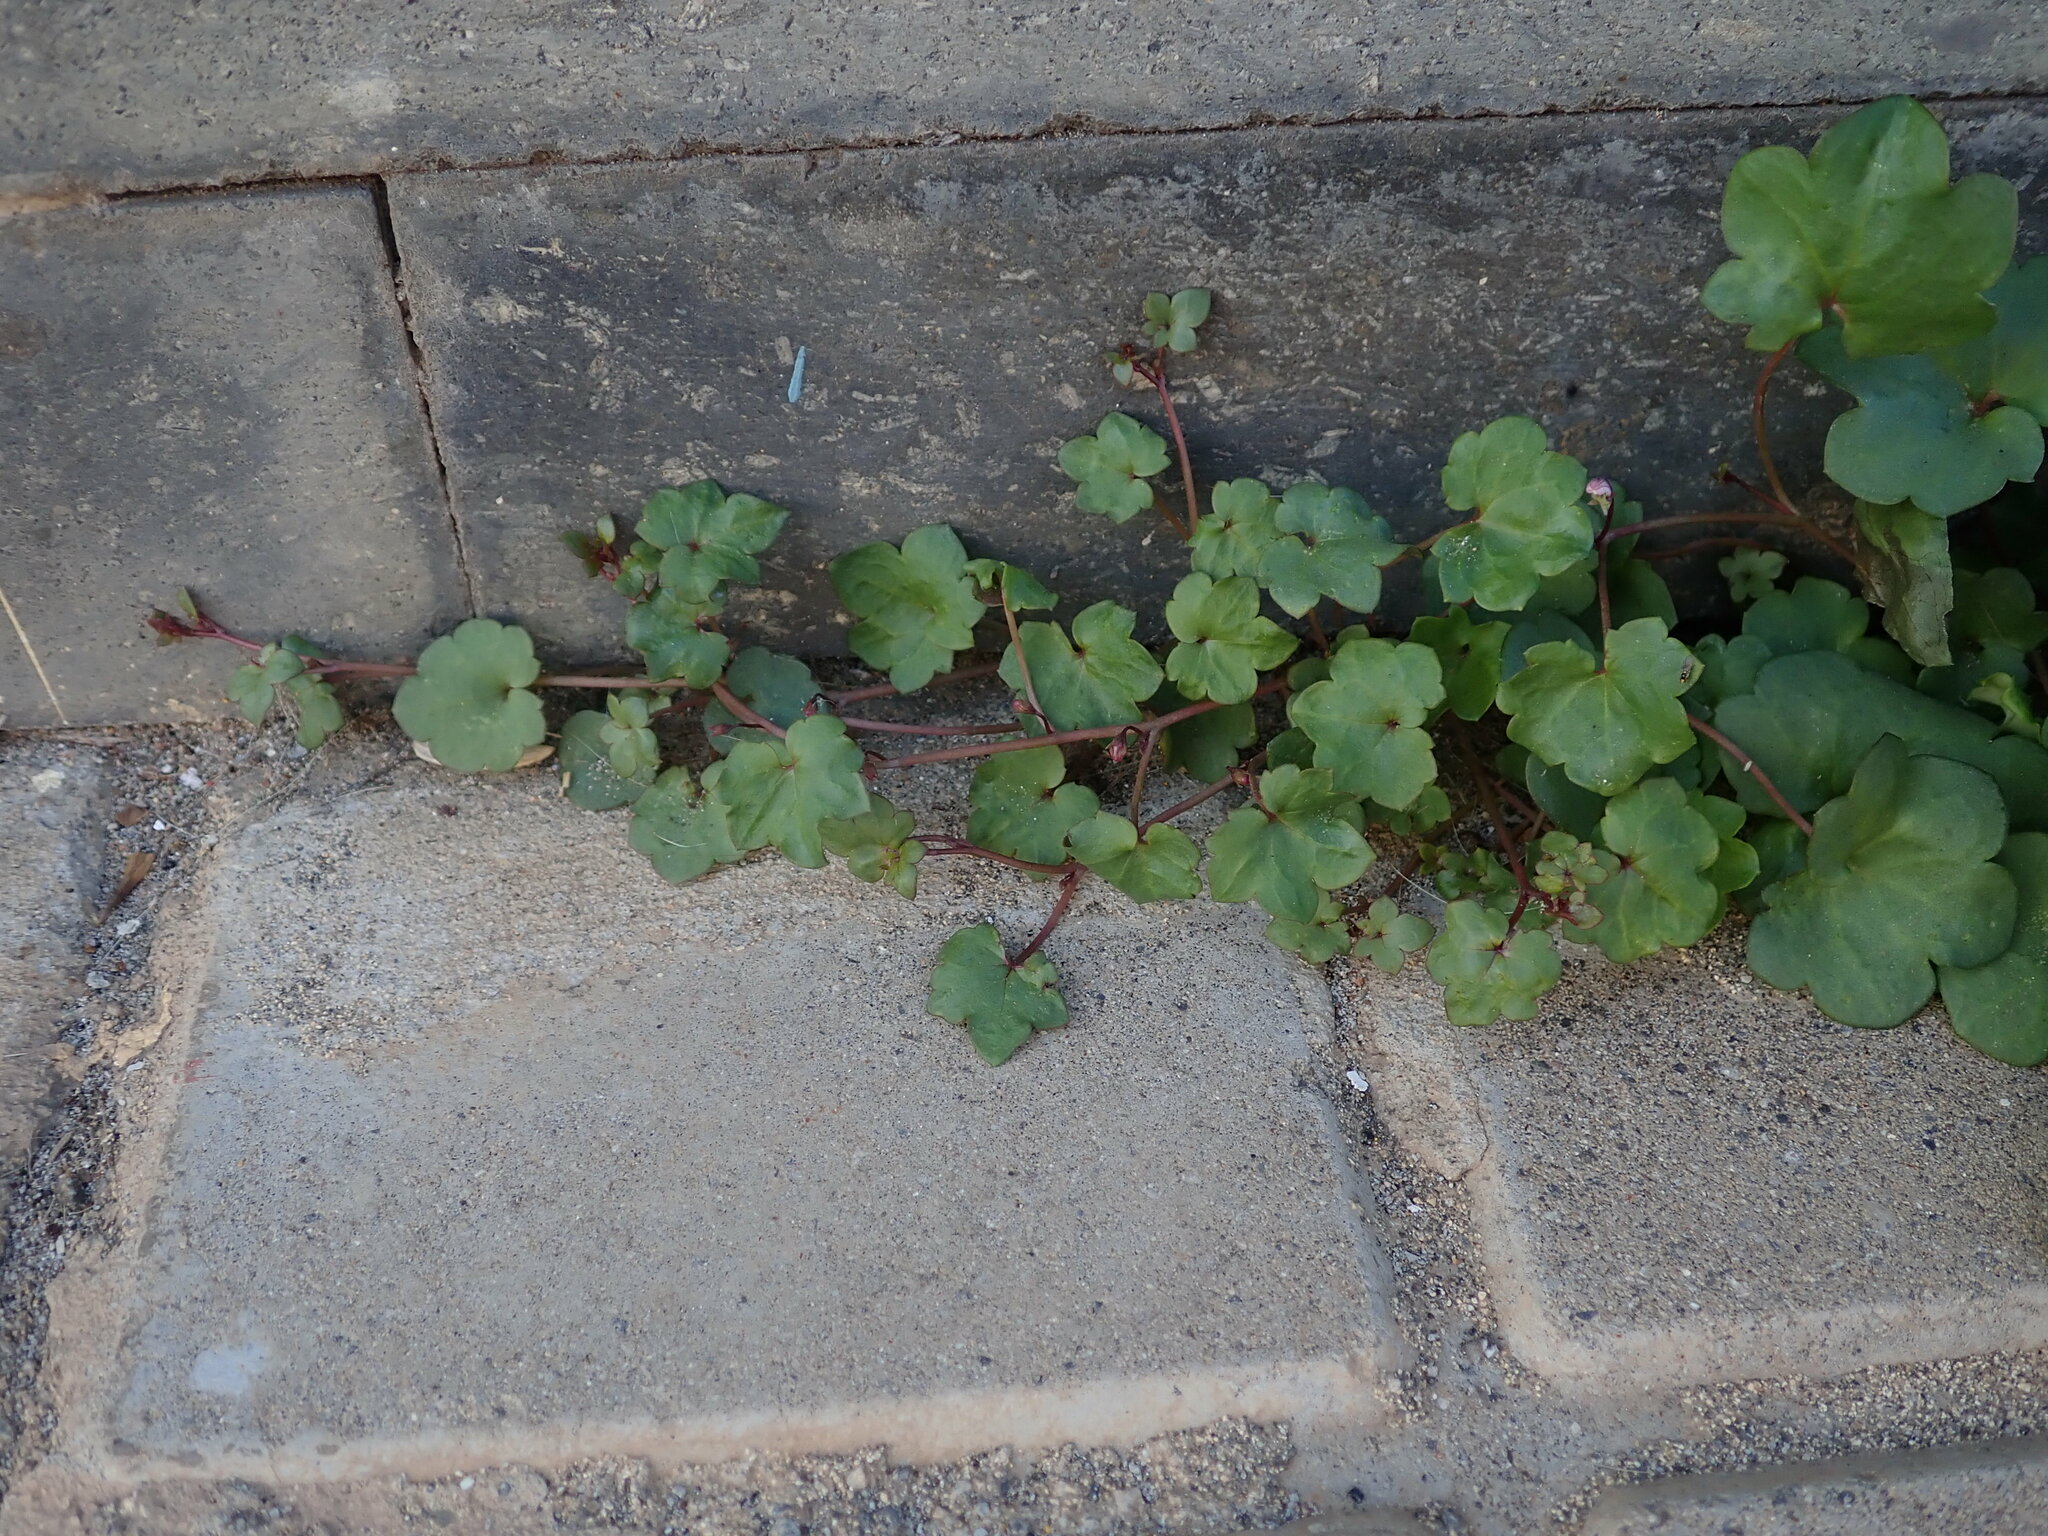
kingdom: Plantae
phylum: Tracheophyta
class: Magnoliopsida
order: Lamiales
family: Plantaginaceae
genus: Cymbalaria
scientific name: Cymbalaria muralis
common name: Ivy-leaved toadflax
